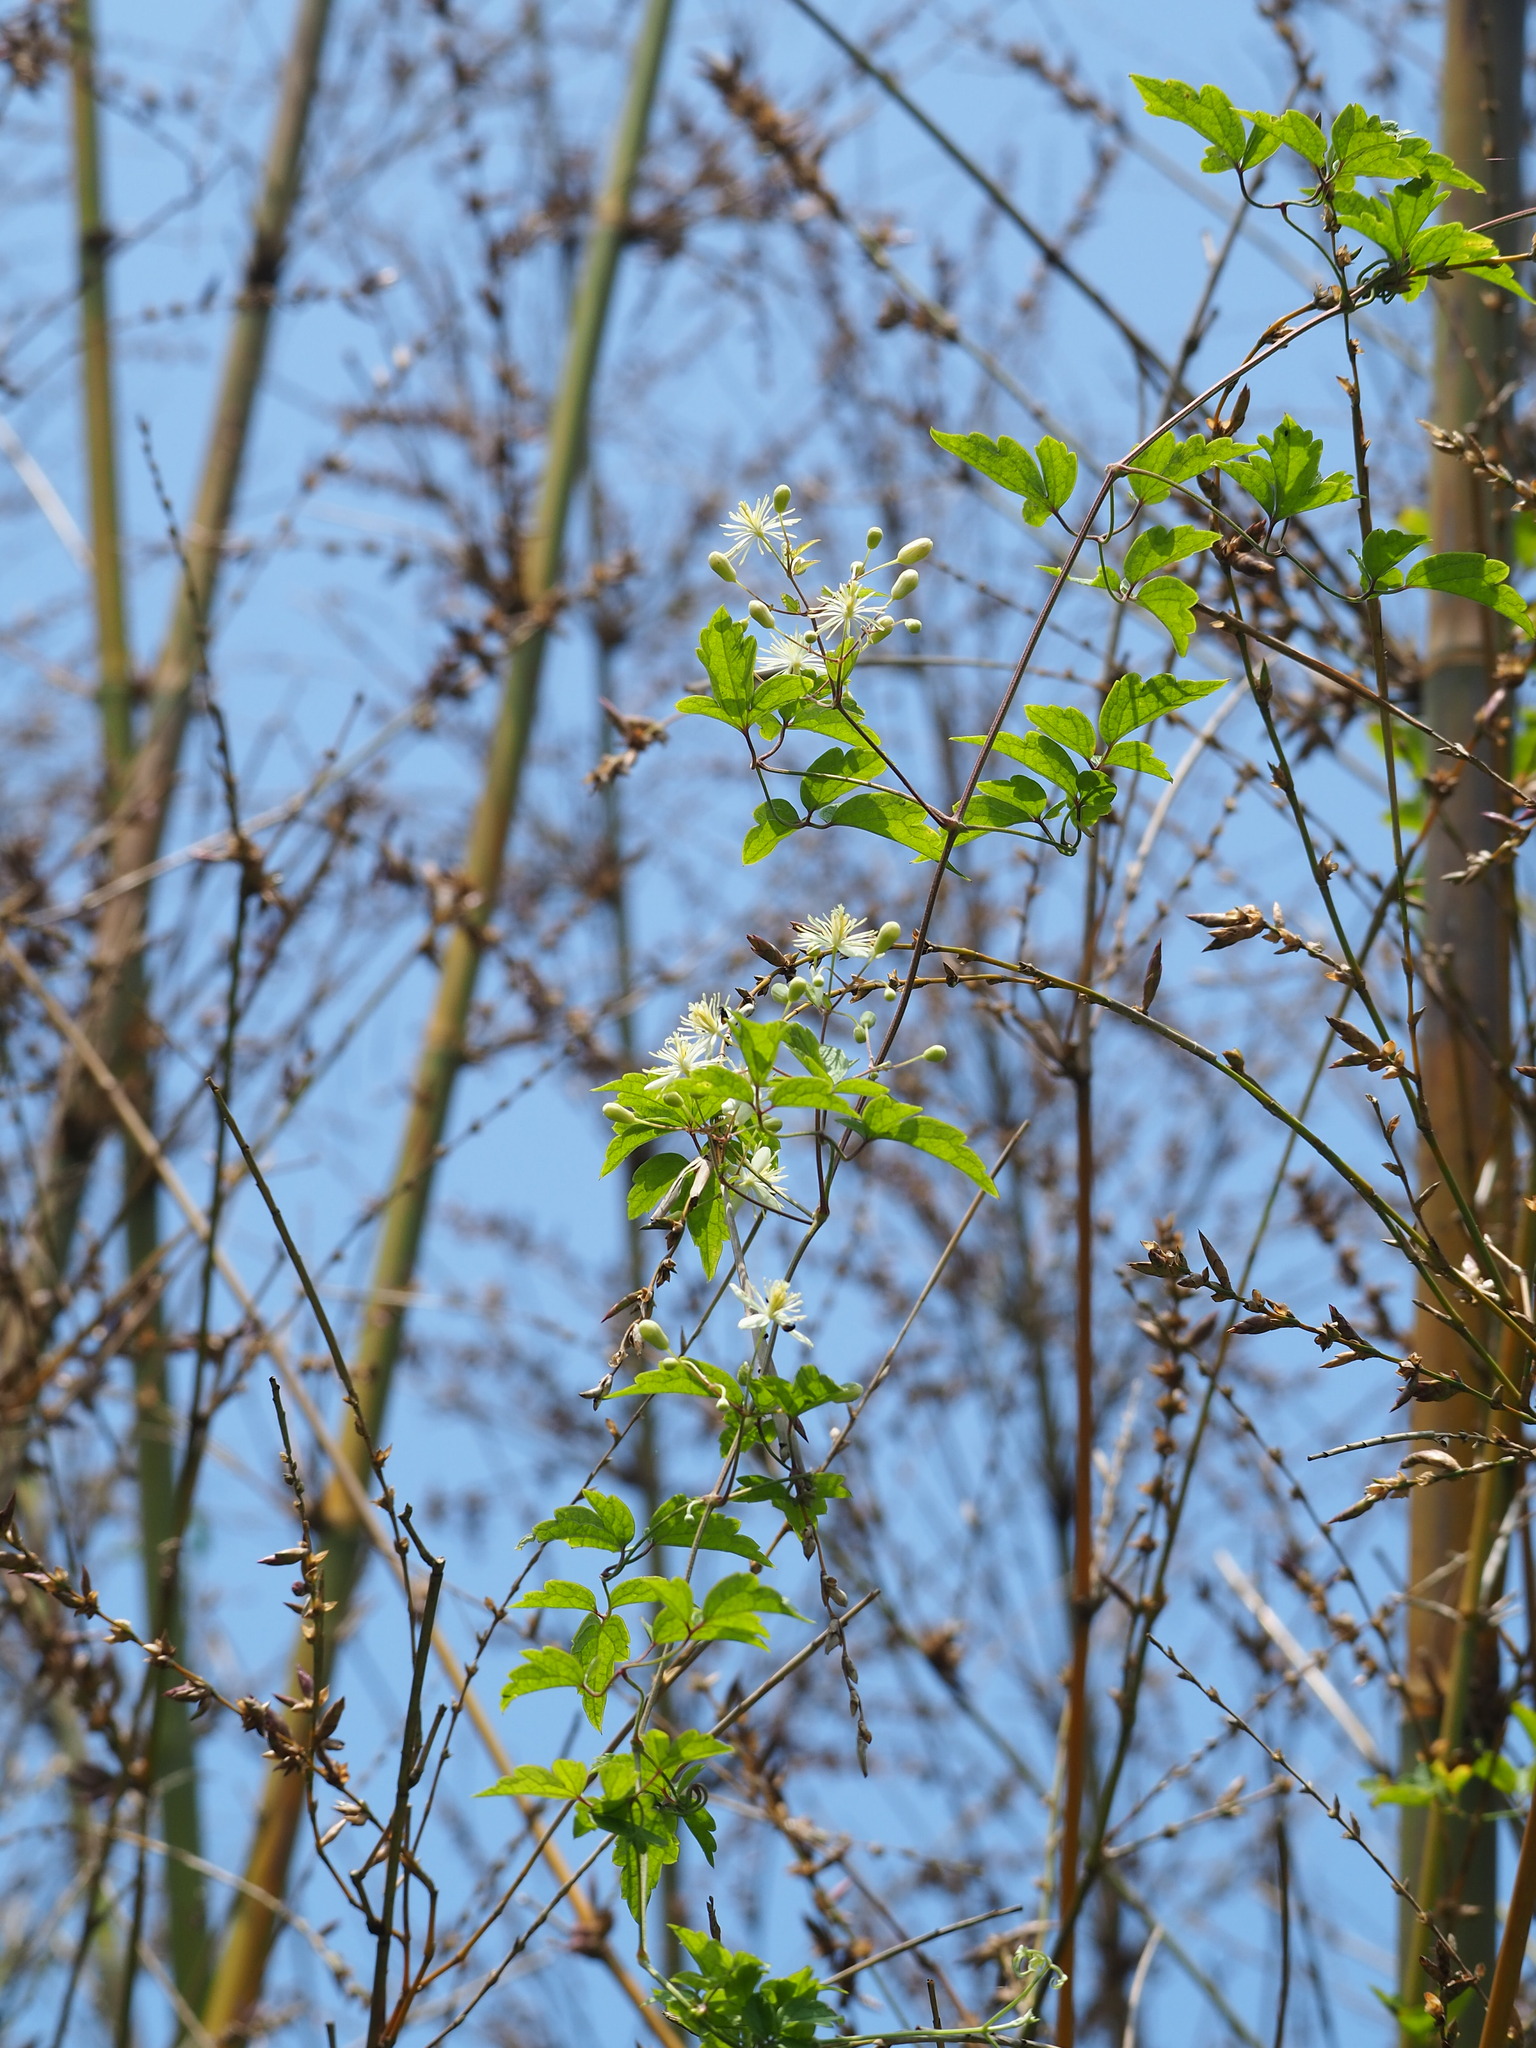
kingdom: Plantae
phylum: Tracheophyta
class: Magnoliopsida
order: Ranunculales
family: Ranunculaceae
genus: Clematis
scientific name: Clematis grata
